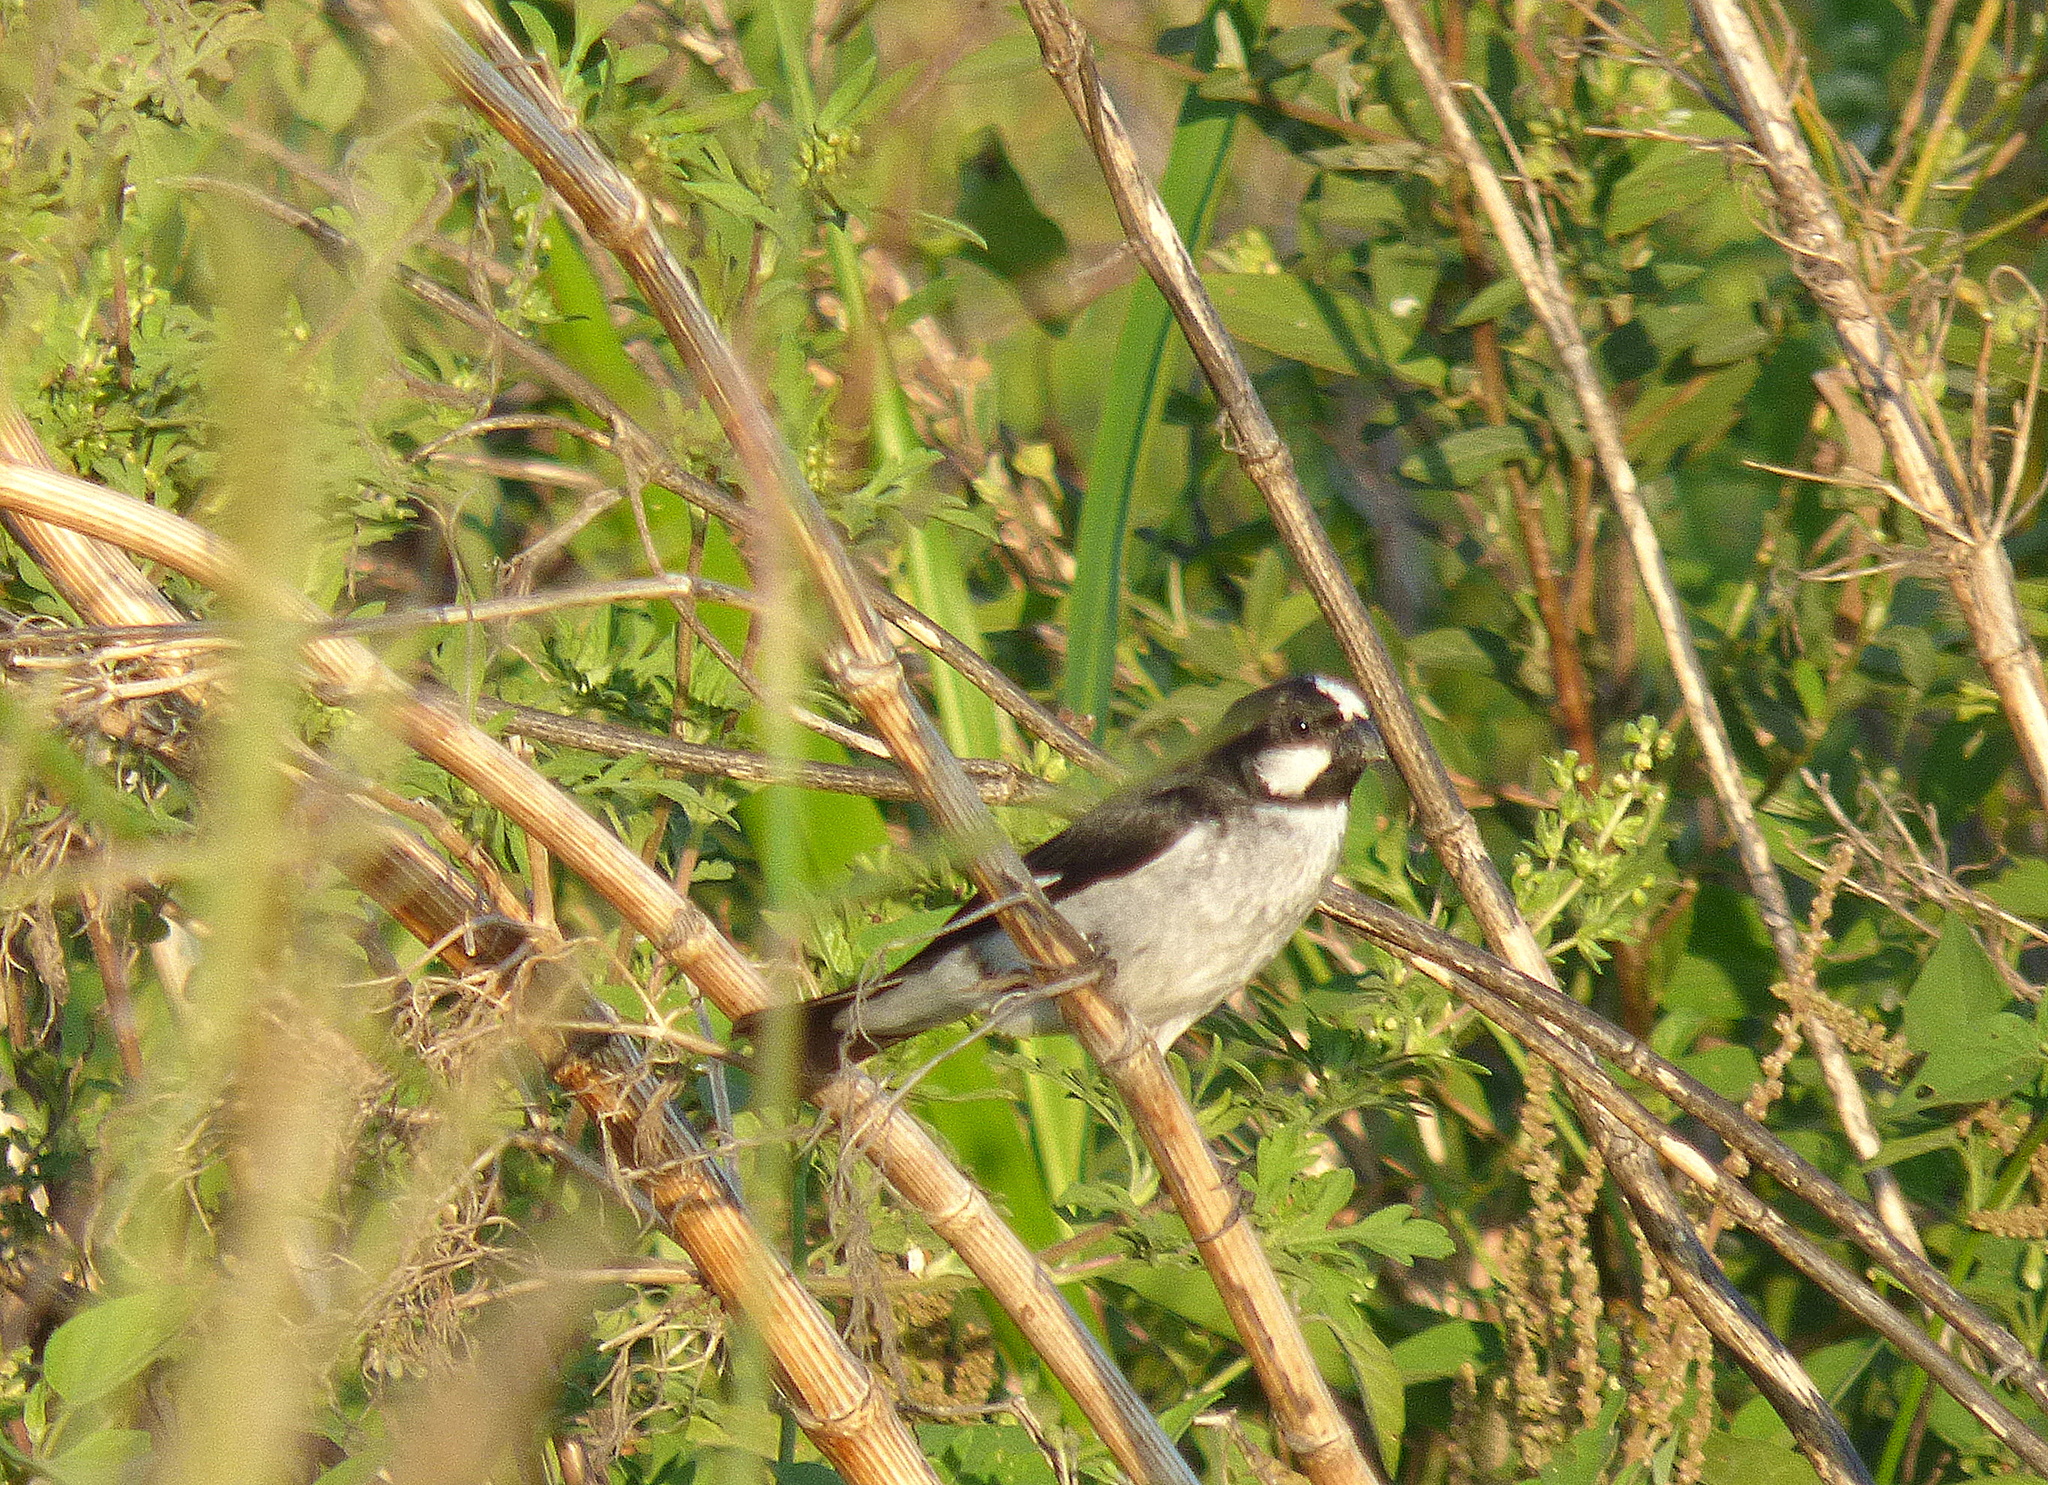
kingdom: Animalia
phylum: Chordata
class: Aves
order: Passeriformes
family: Thraupidae
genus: Sporophila
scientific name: Sporophila lineola
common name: Lined seedeater
